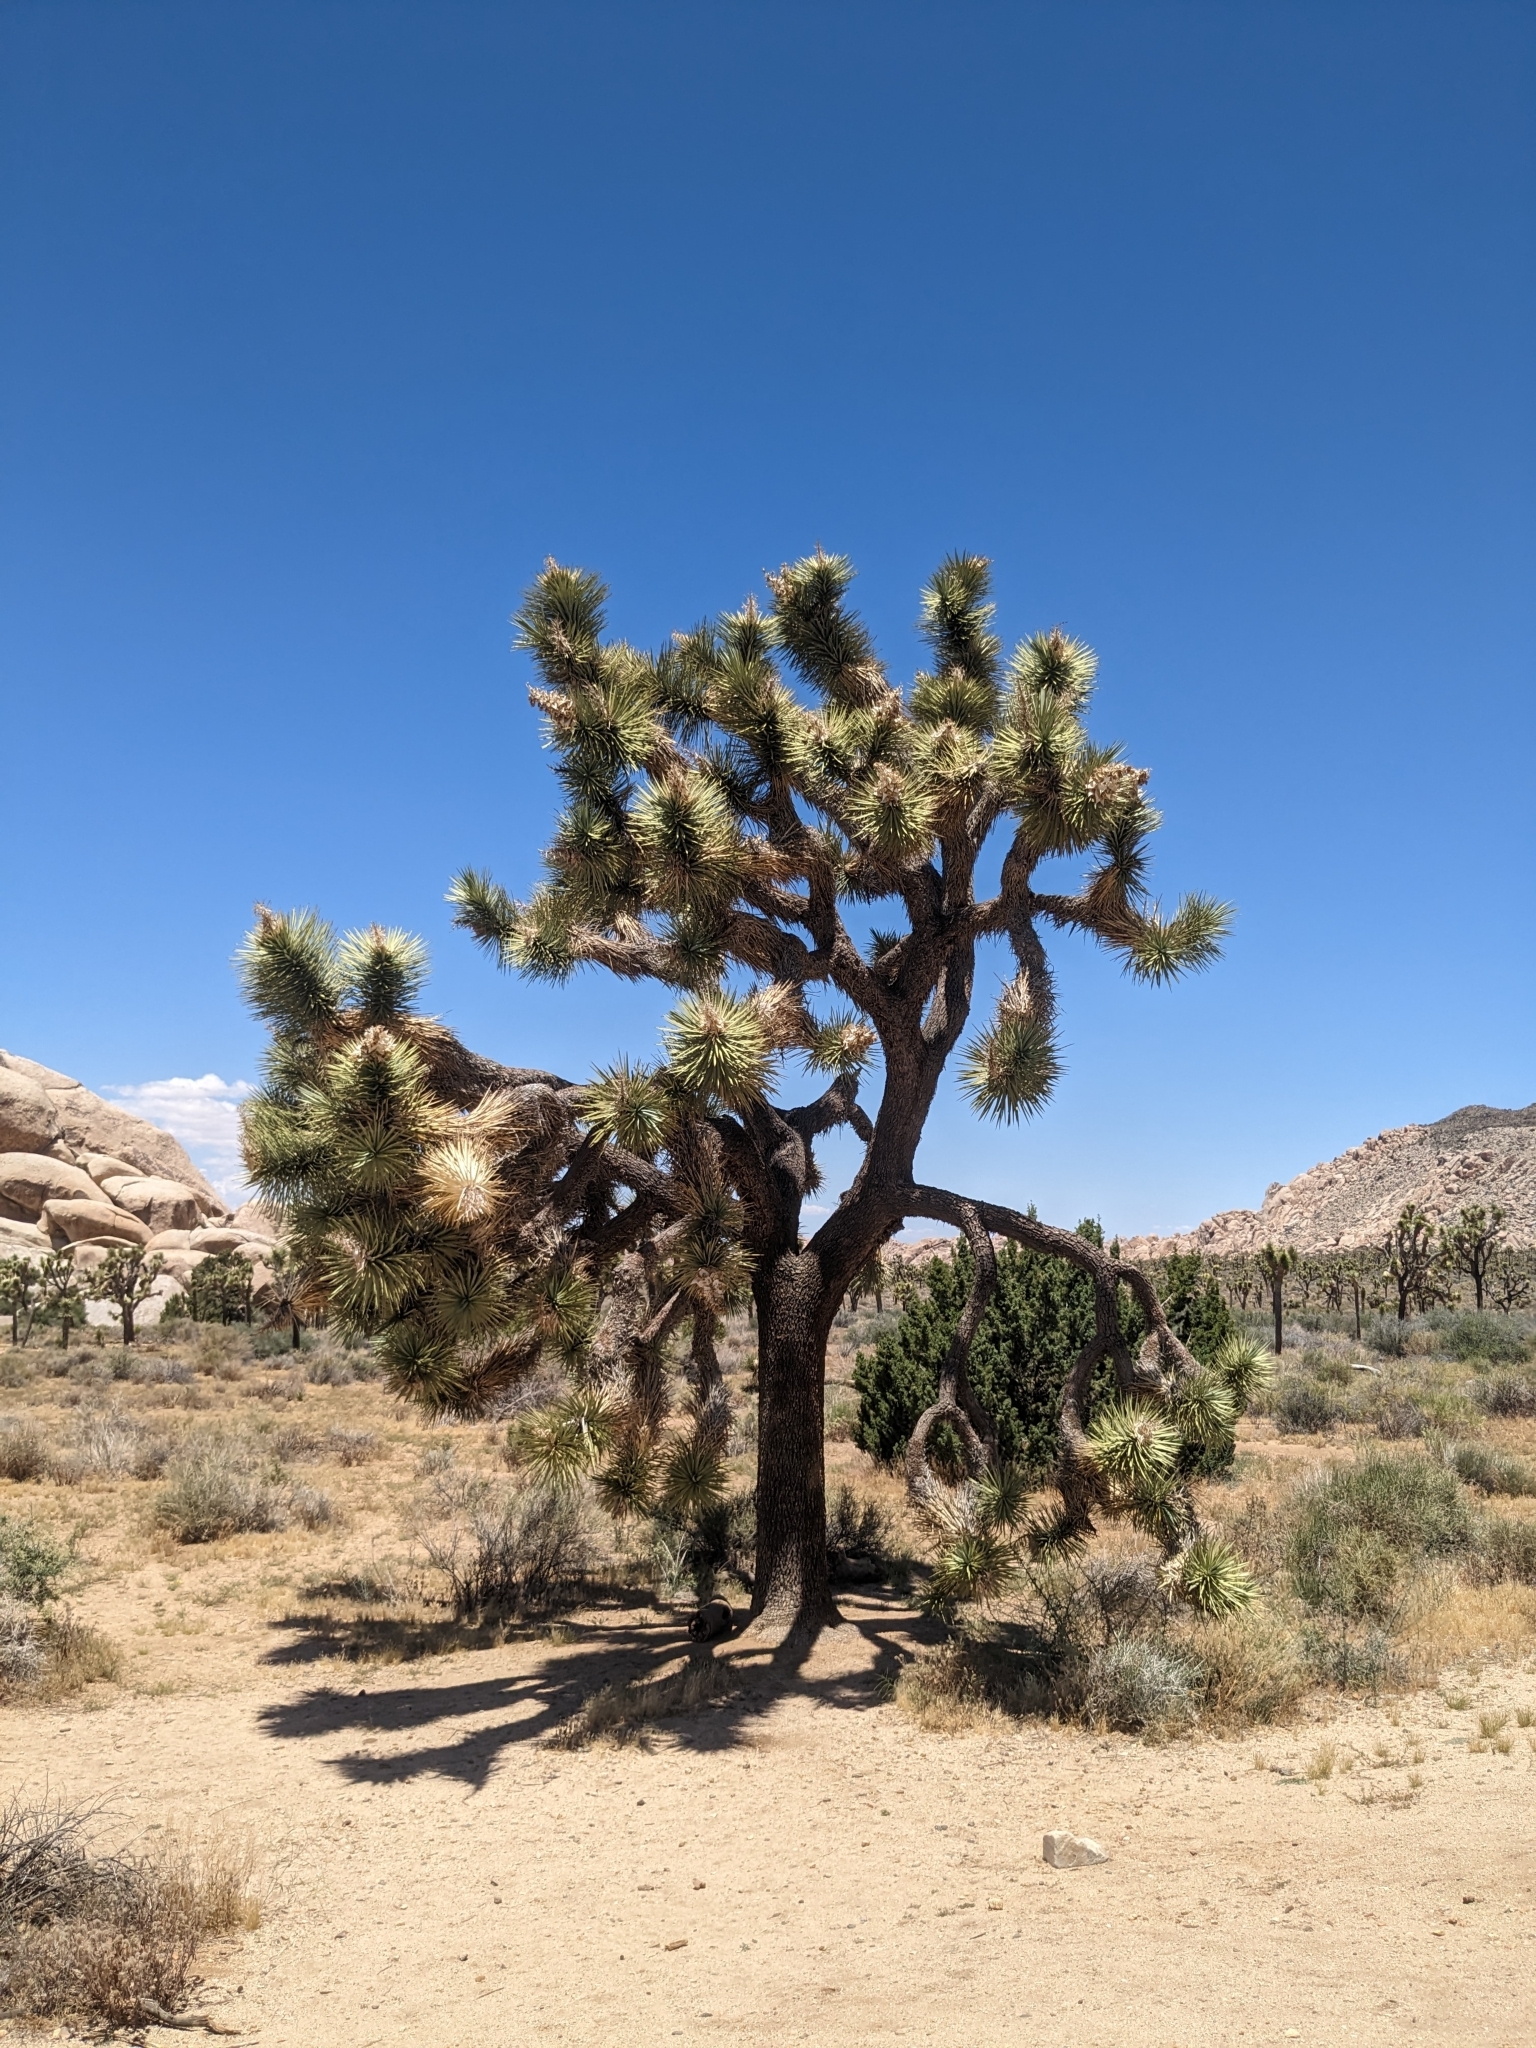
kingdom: Plantae
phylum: Tracheophyta
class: Liliopsida
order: Asparagales
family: Asparagaceae
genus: Yucca
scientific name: Yucca brevifolia
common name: Joshua tree
